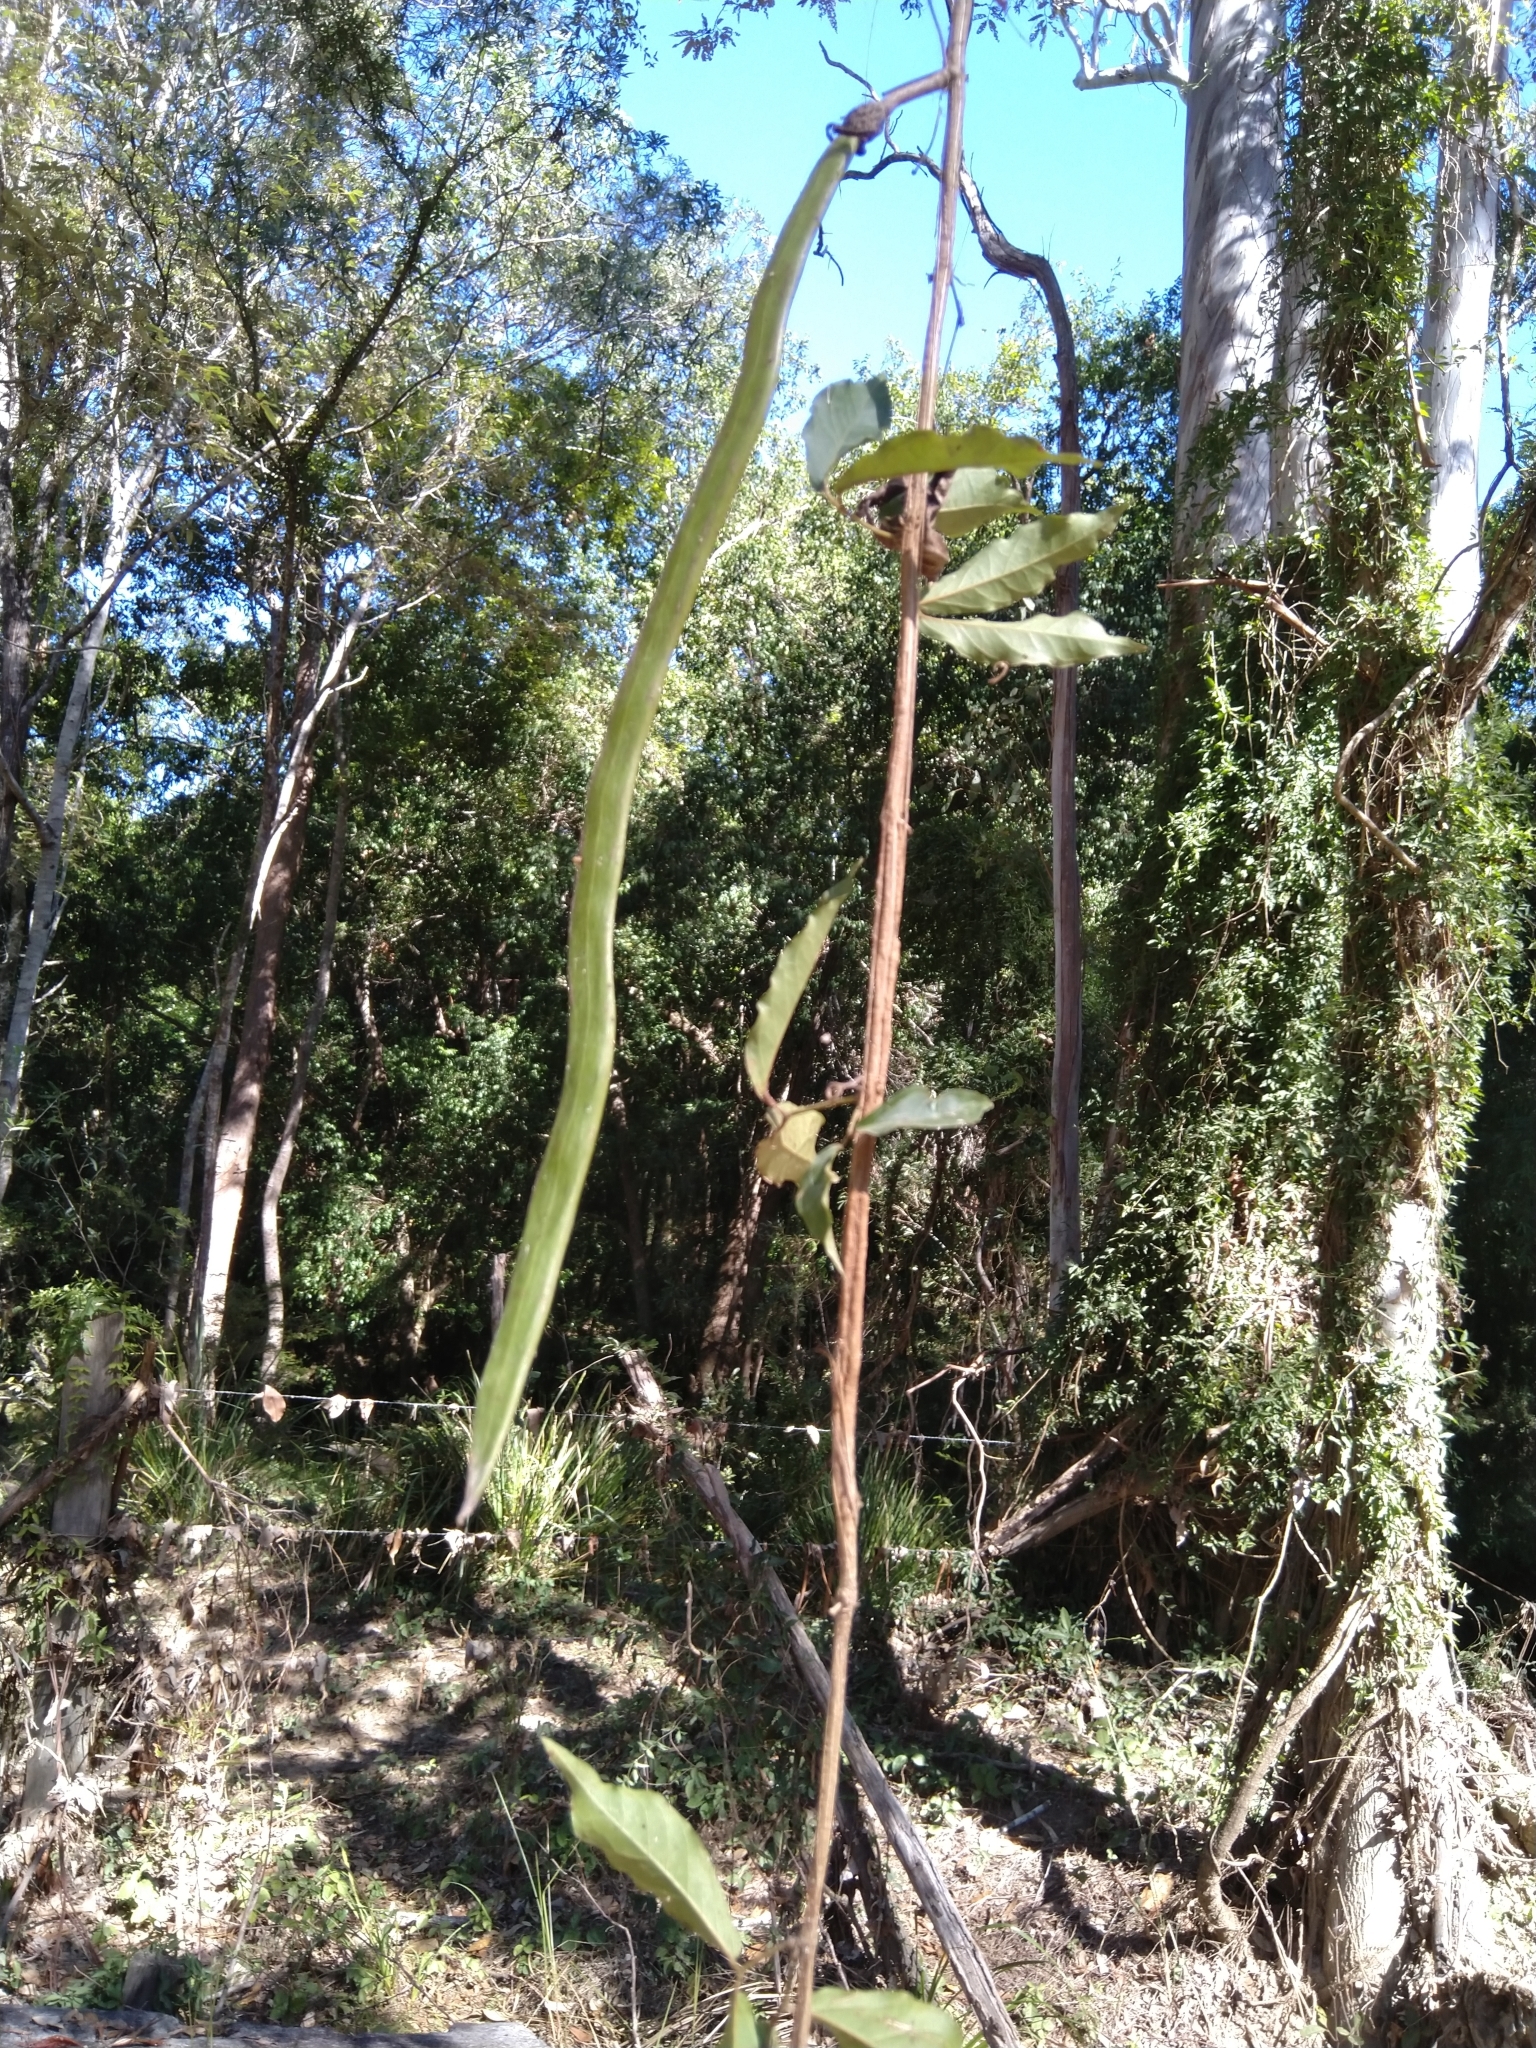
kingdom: Plantae
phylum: Tracheophyta
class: Magnoliopsida
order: Lamiales
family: Bignoniaceae
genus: Dolichandra
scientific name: Dolichandra unguis-cati
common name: Catclaw vine
